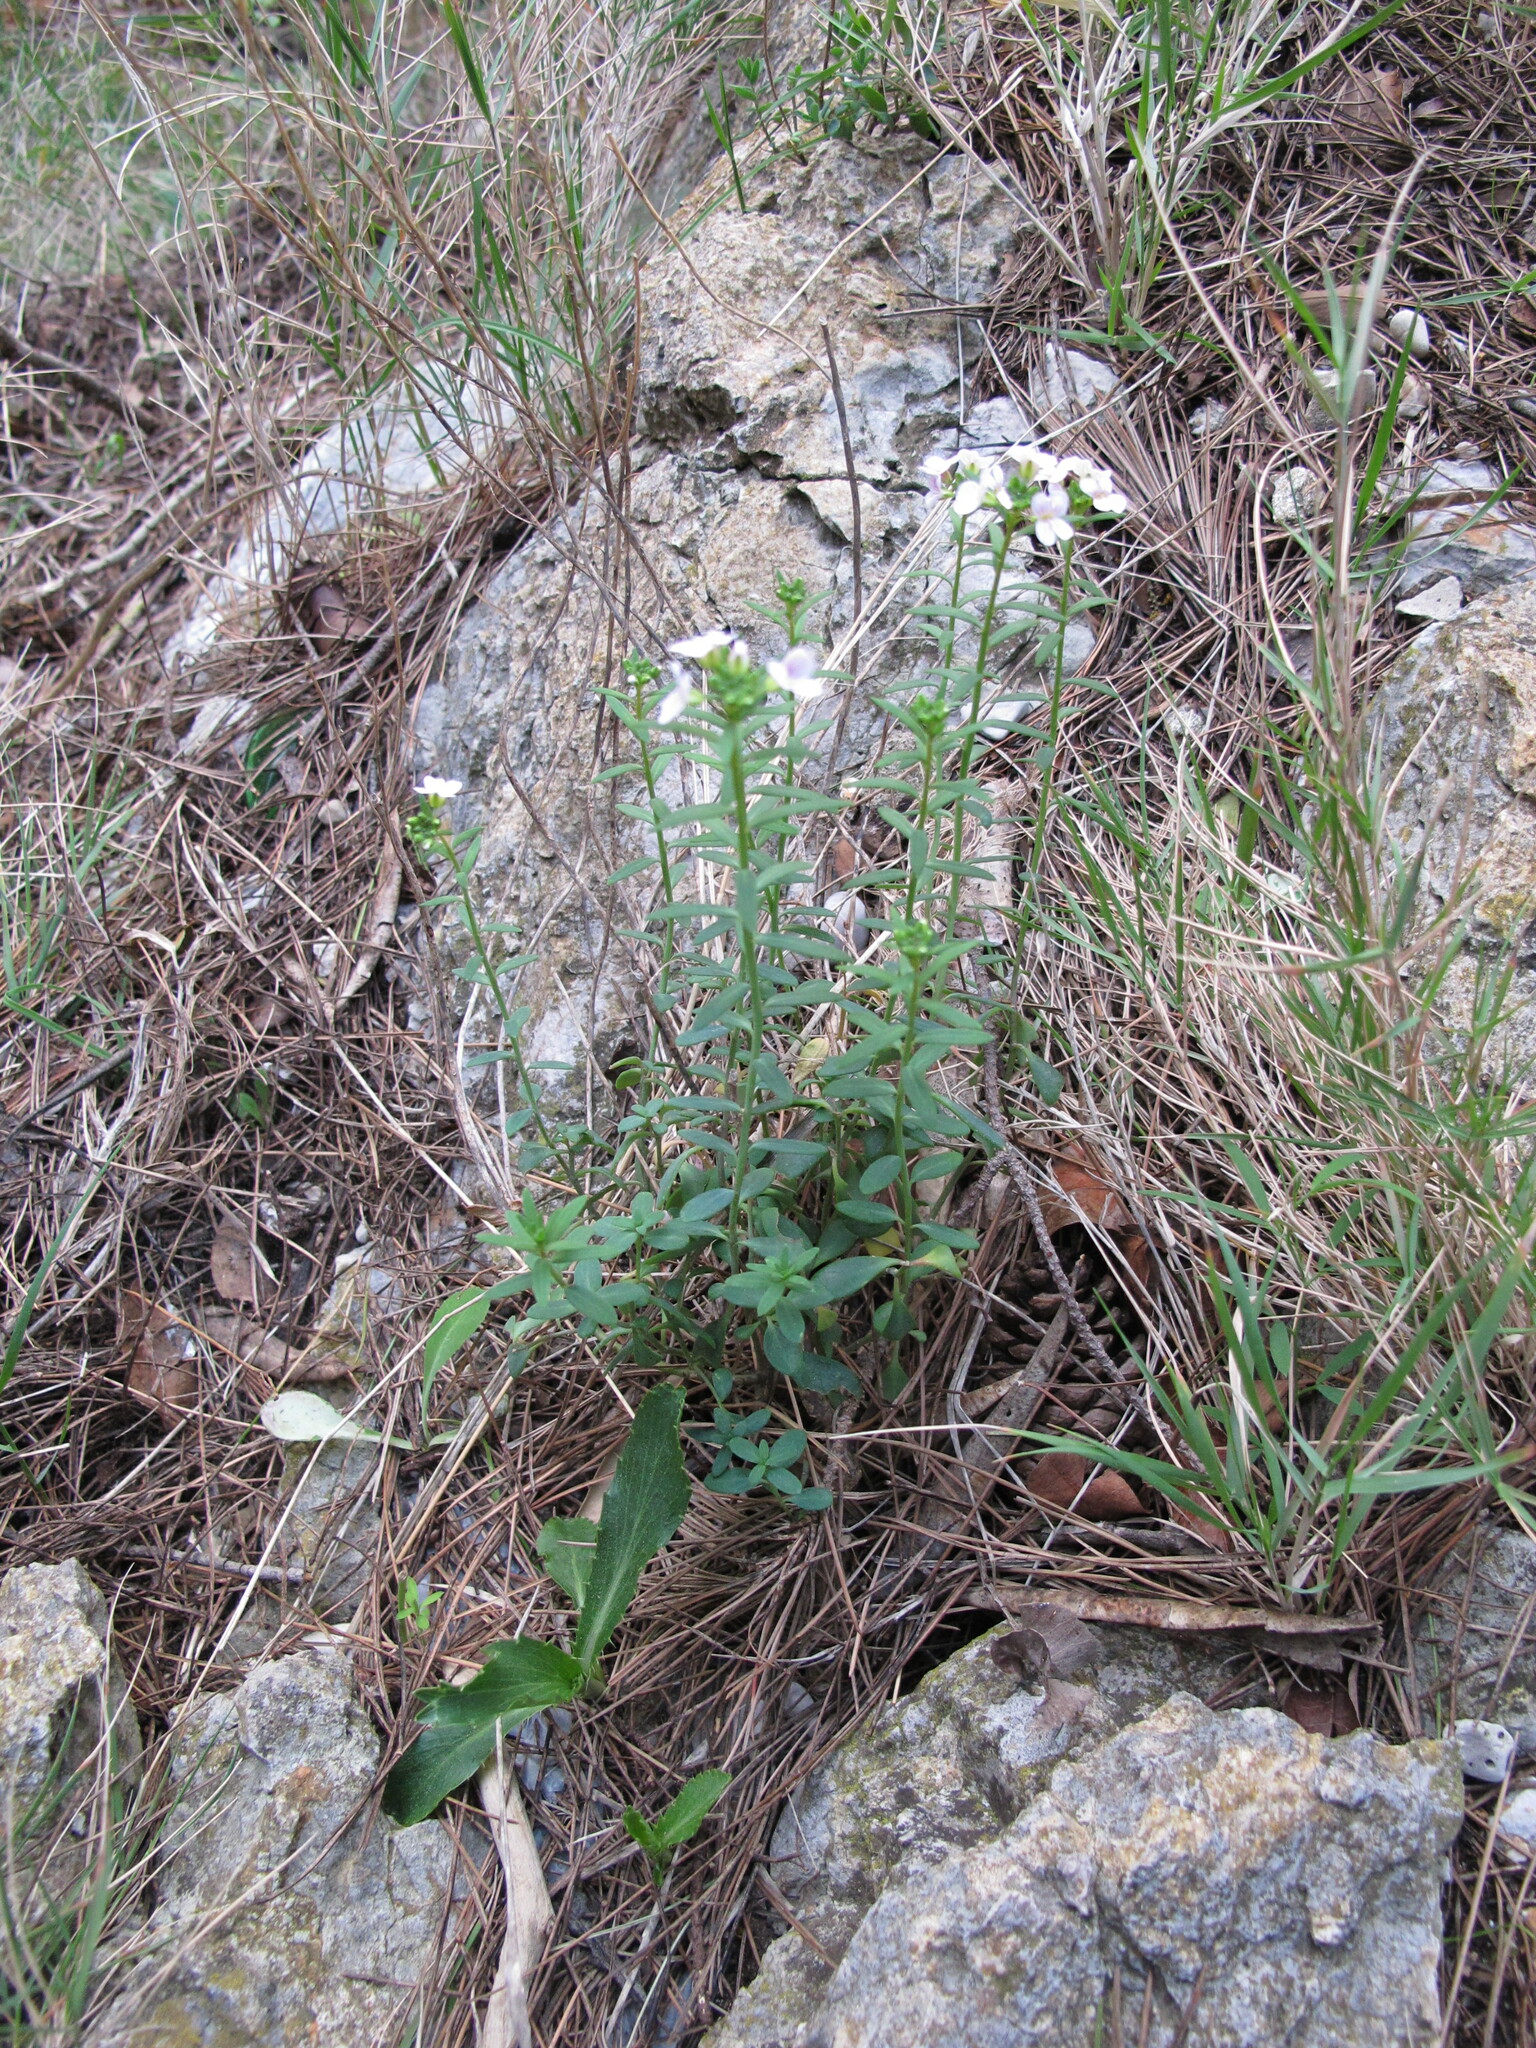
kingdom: Plantae
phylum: Tracheophyta
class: Magnoliopsida
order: Brassicales
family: Brassicaceae
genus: Aethionema
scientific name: Aethionema saxatile
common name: Burnt candytuft
